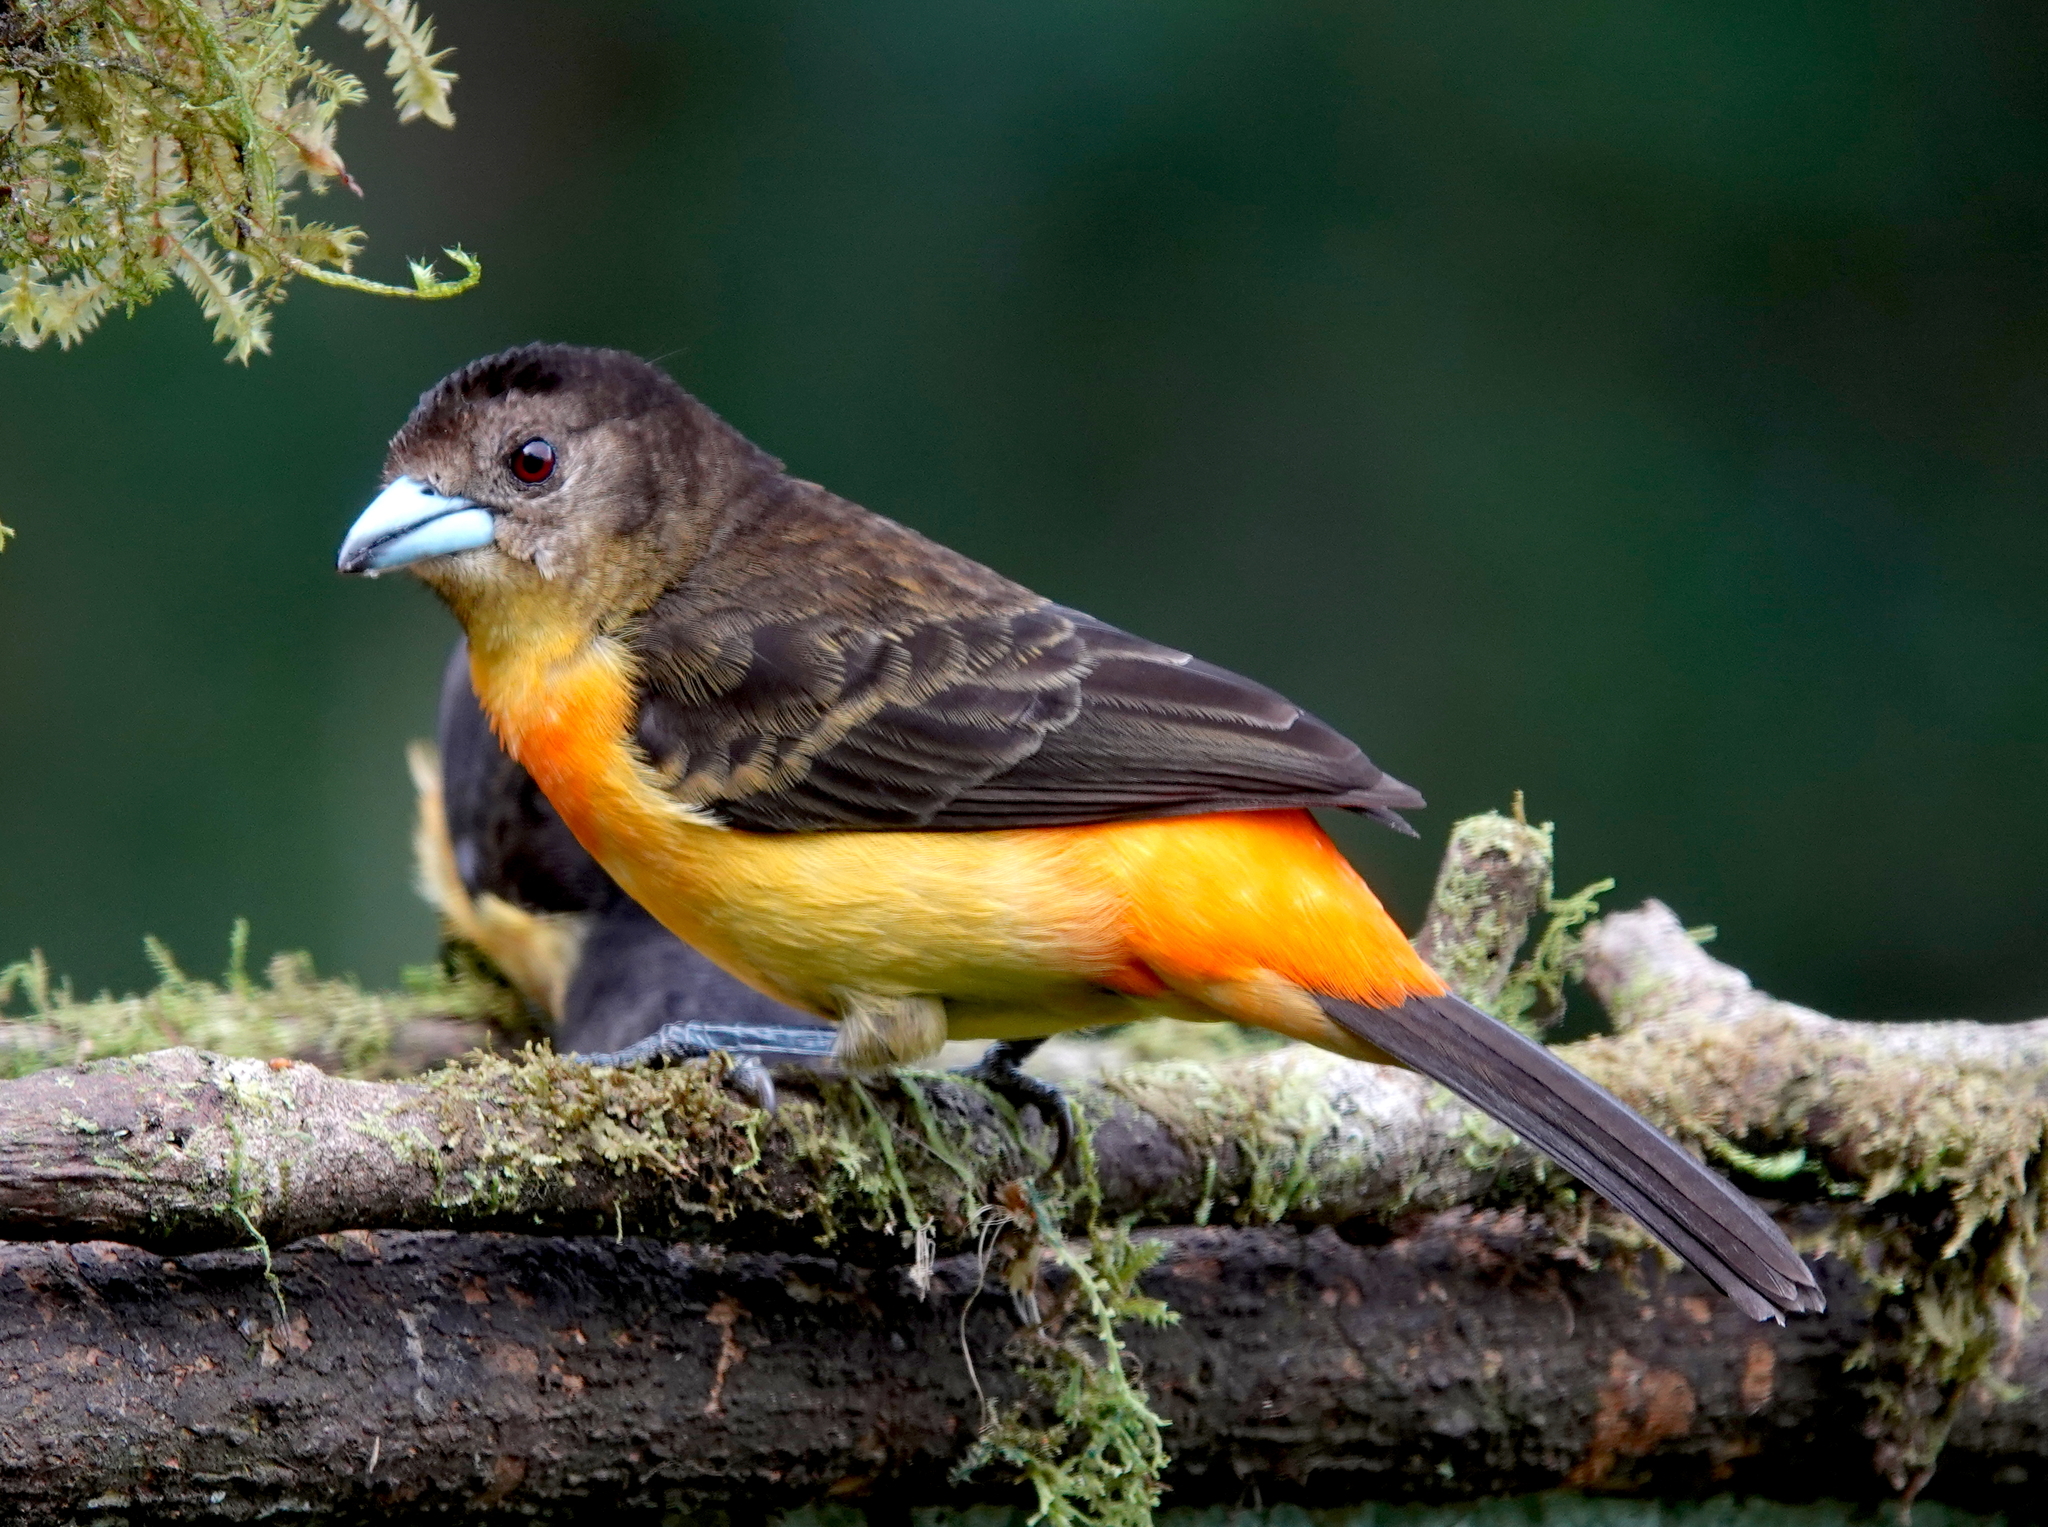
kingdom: Animalia
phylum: Chordata
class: Aves
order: Passeriformes
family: Thraupidae
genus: Ramphocelus
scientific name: Ramphocelus flammigerus
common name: Flame-rumped tanager
